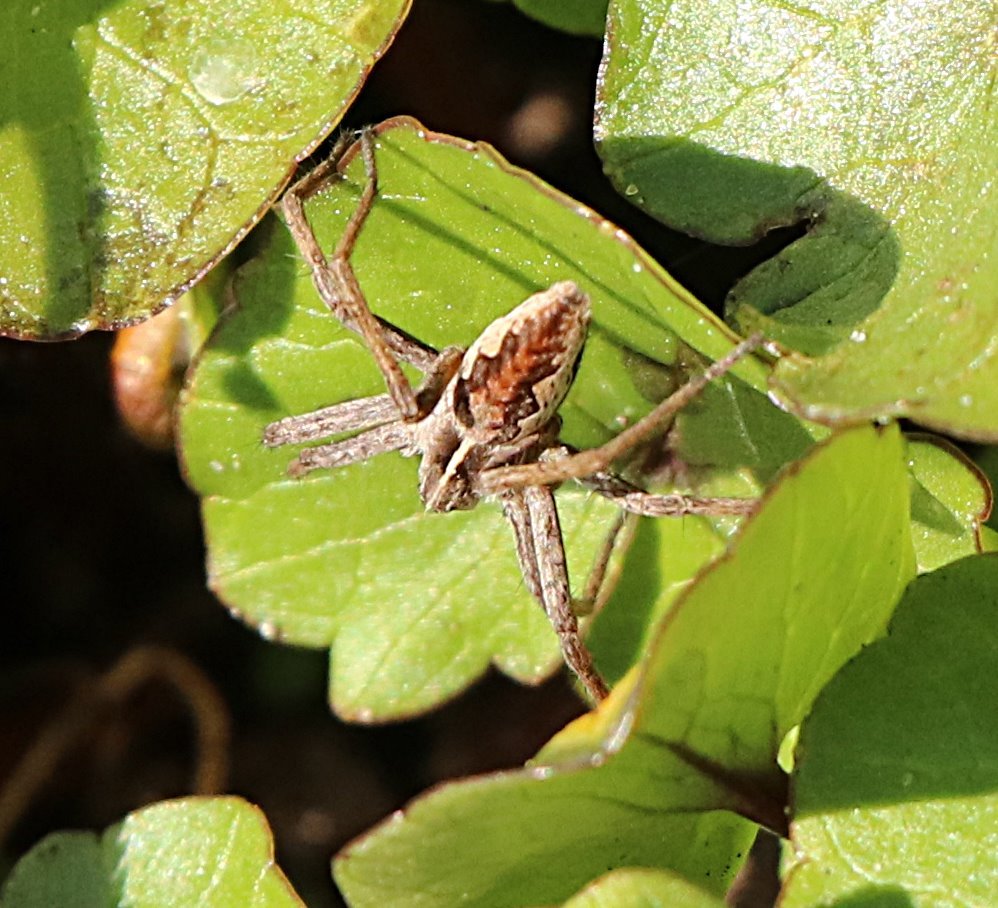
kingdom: Animalia
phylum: Arthropoda
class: Arachnida
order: Araneae
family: Pisauridae
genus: Pisaura
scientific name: Pisaura mirabilis
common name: Tent spider
